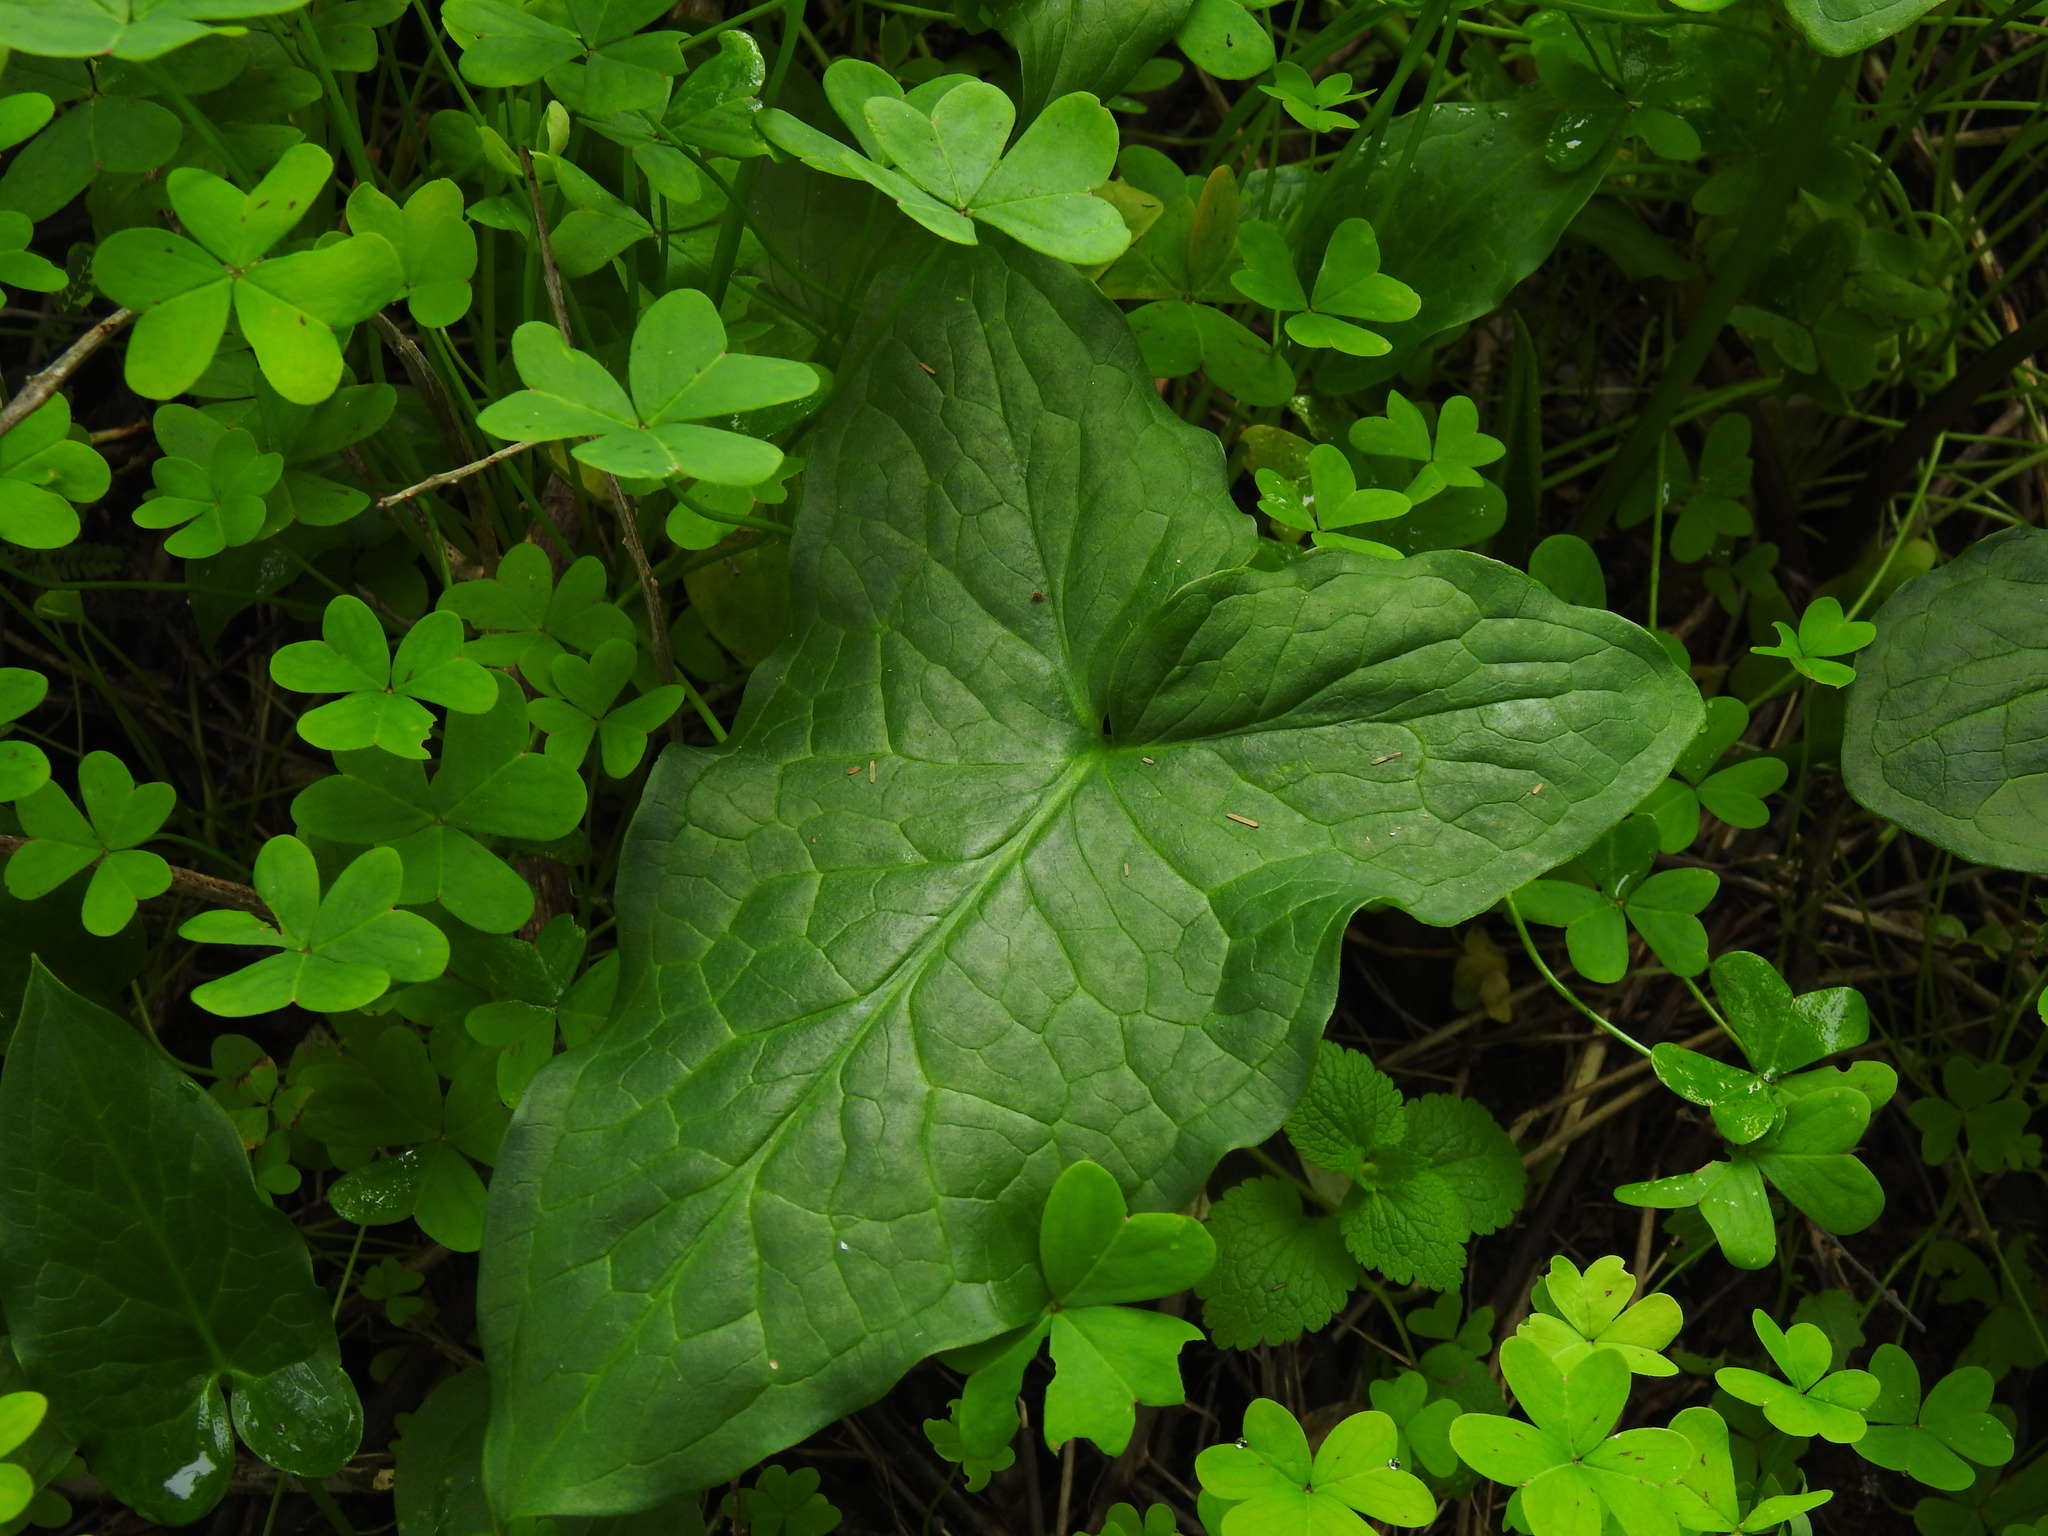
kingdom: Plantae
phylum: Tracheophyta
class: Liliopsida
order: Alismatales
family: Araceae
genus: Arum
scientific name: Arum italicum
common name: Italian lords-and-ladies
